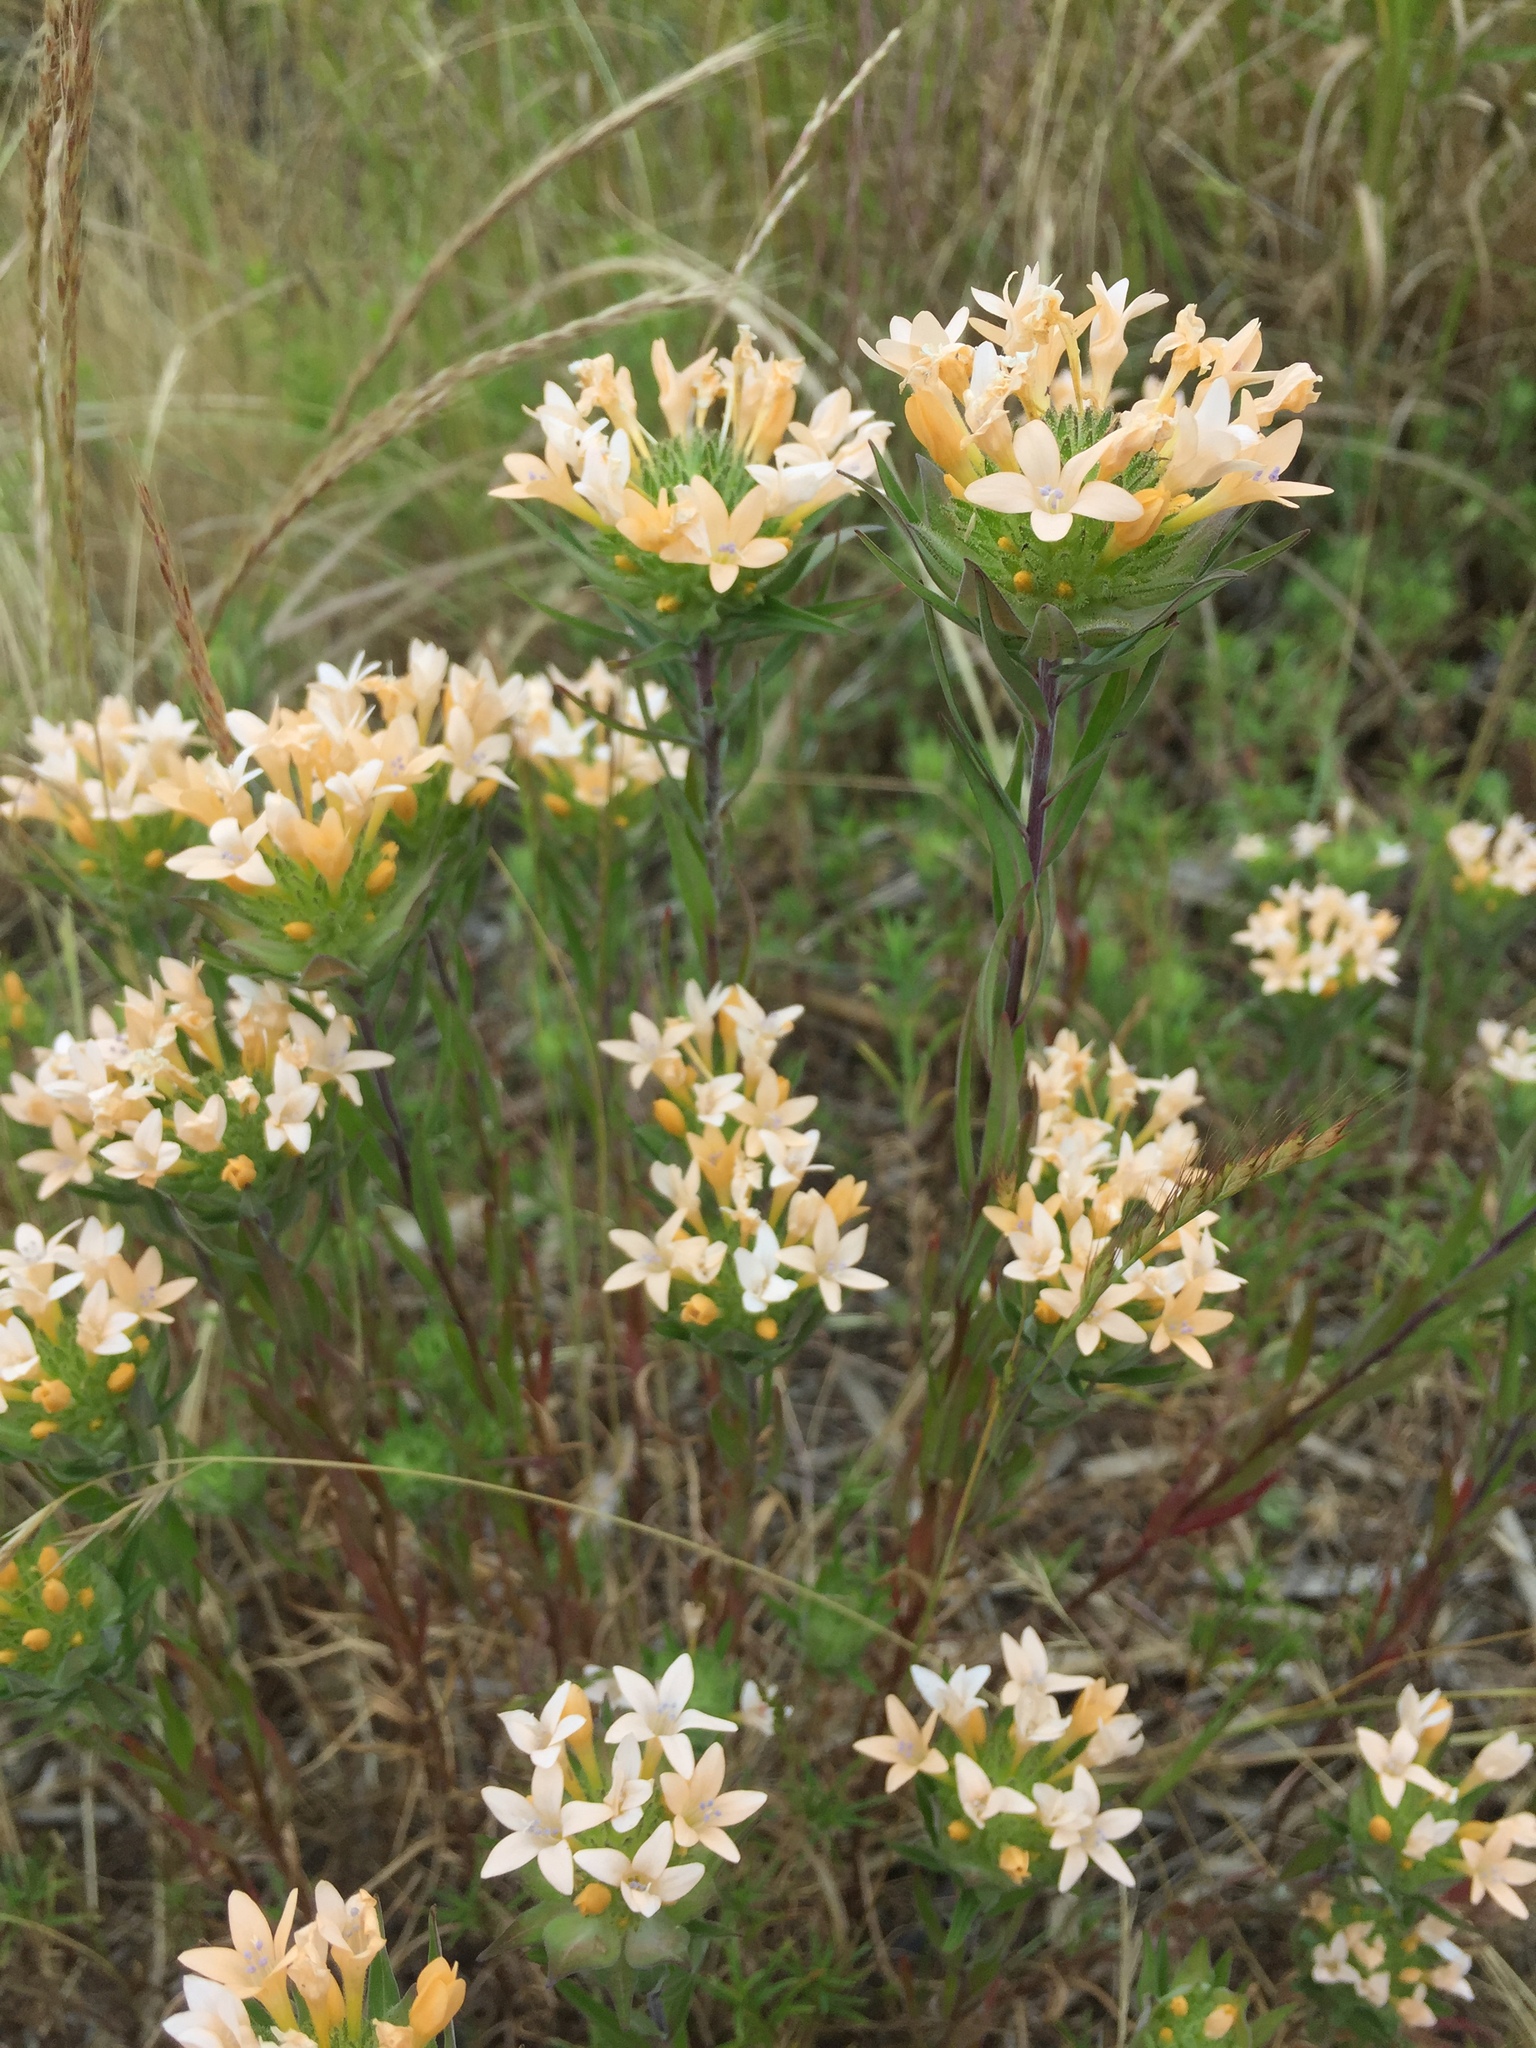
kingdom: Plantae
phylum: Tracheophyta
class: Magnoliopsida
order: Ericales
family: Polemoniaceae
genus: Collomia
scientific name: Collomia grandiflora
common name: California strawflower
